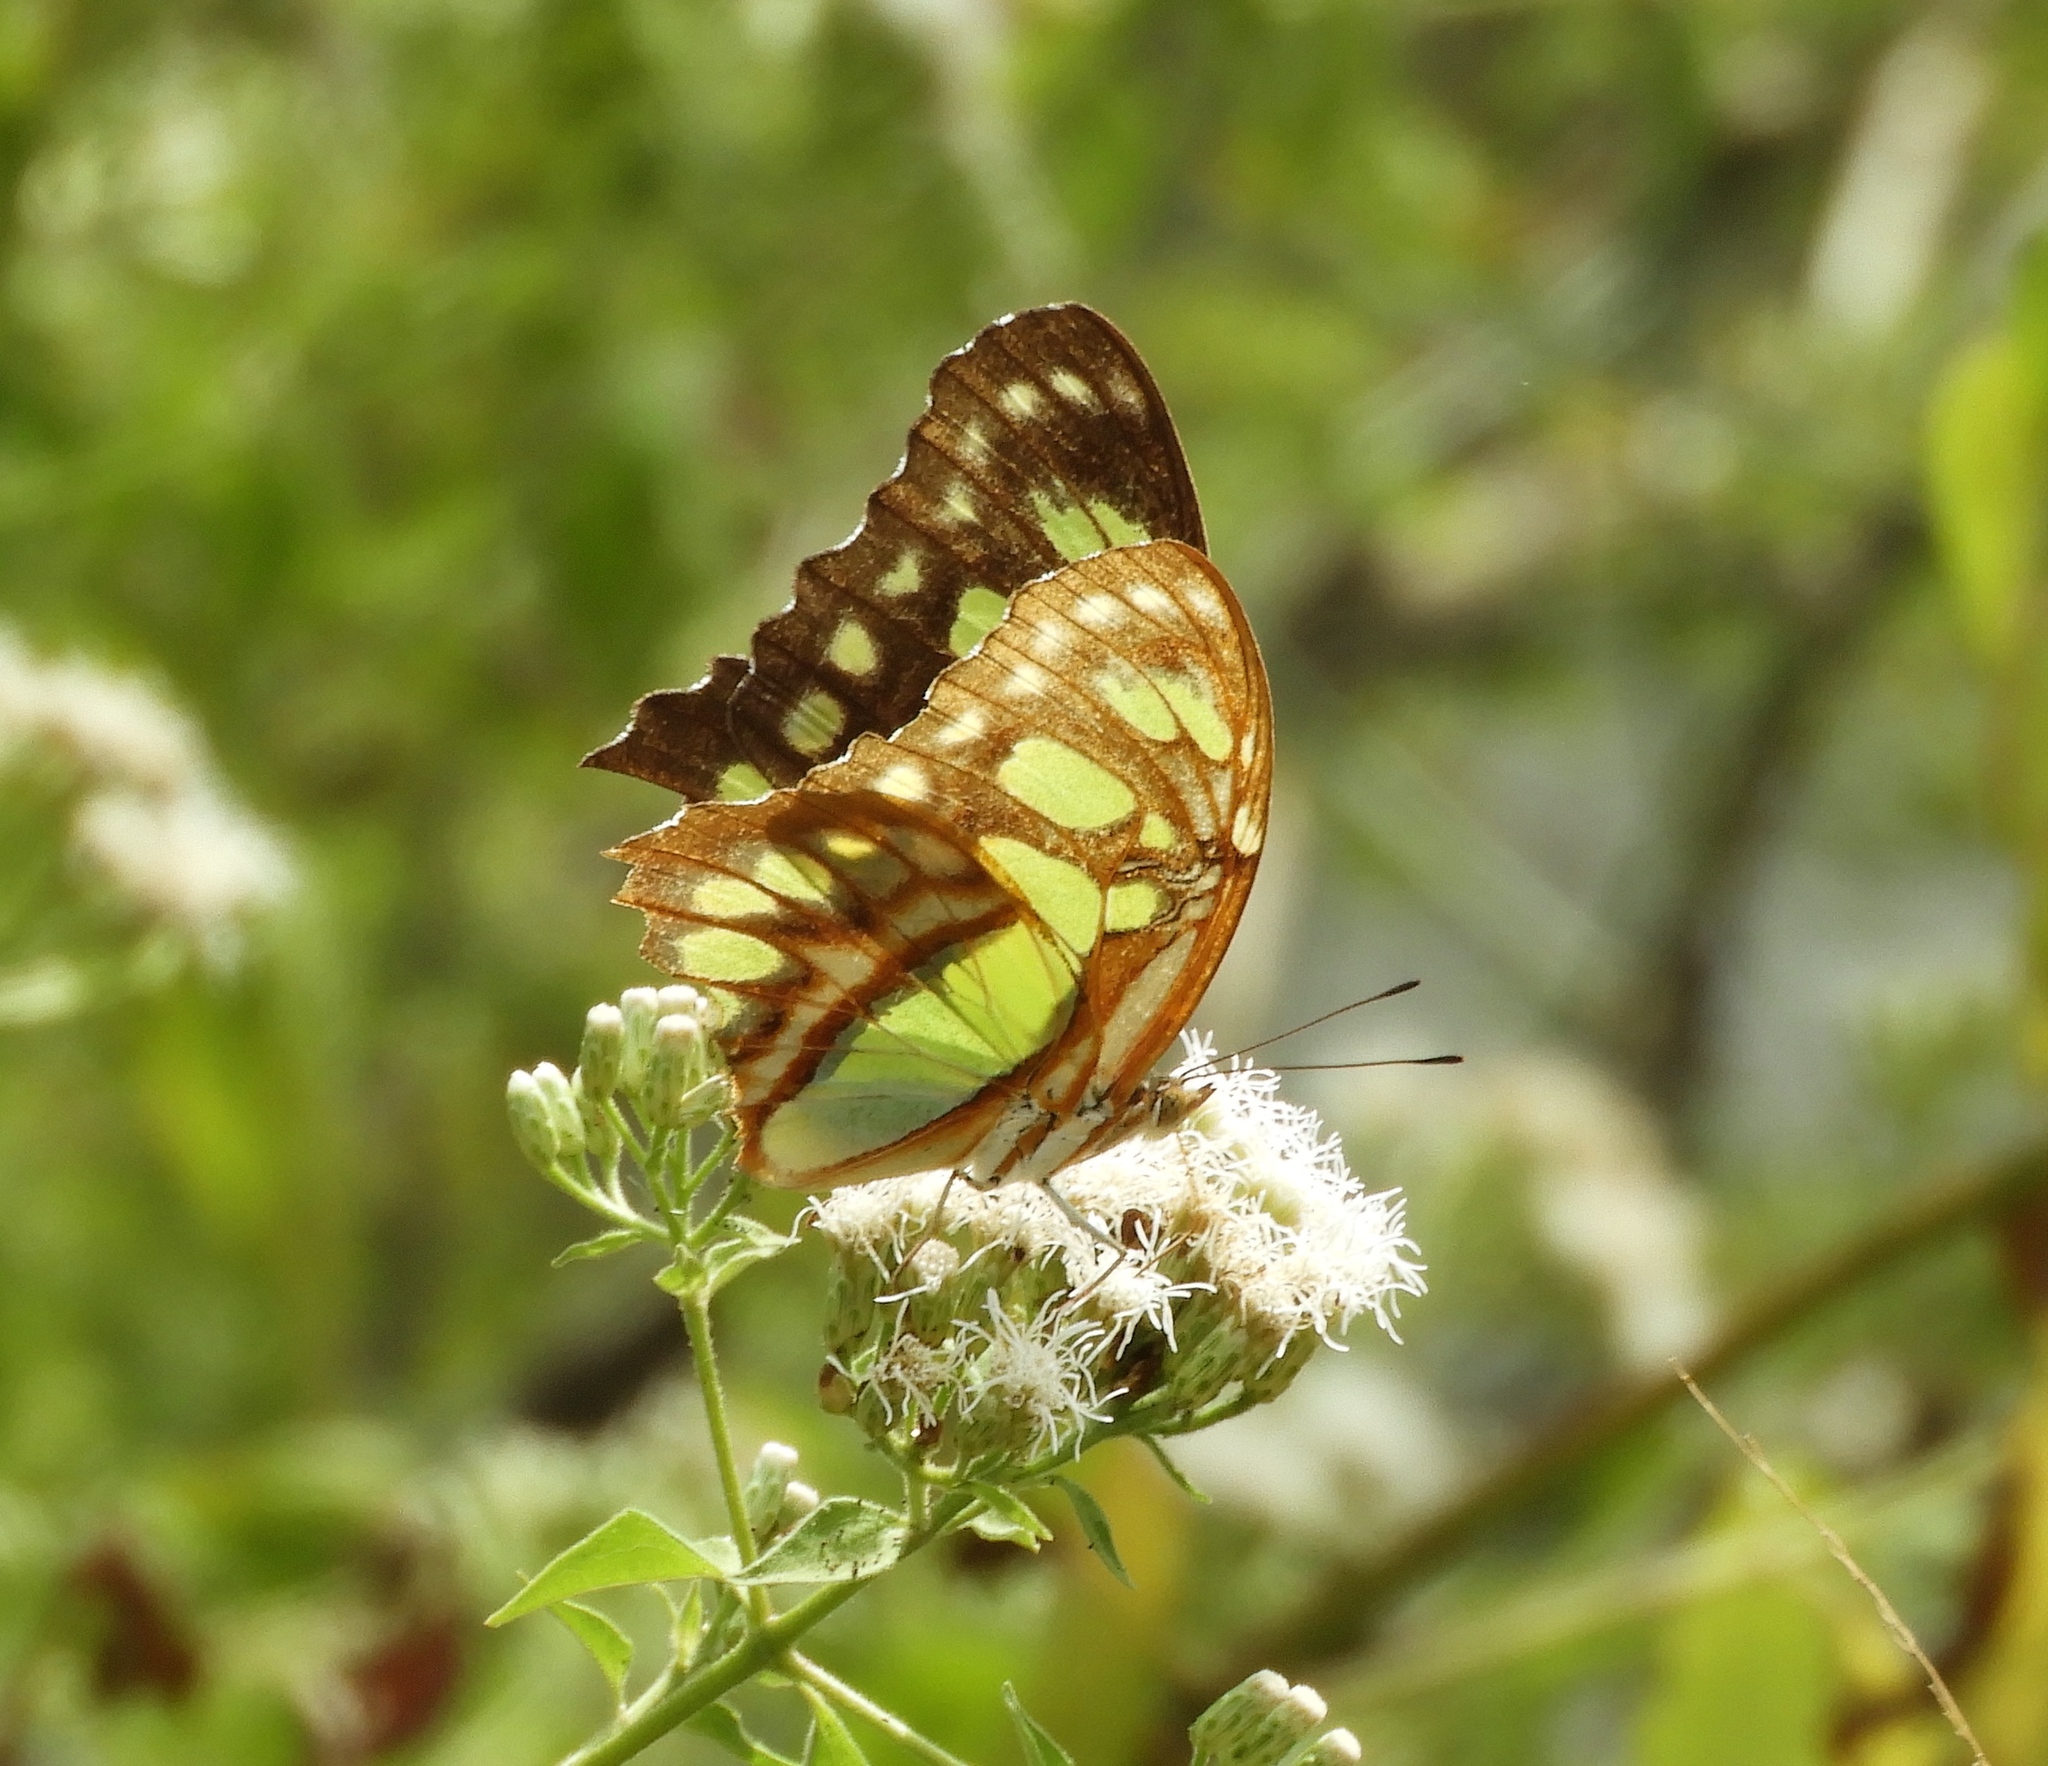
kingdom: Animalia
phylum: Arthropoda
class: Insecta
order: Lepidoptera
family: Nymphalidae
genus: Siproeta
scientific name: Siproeta stelenes
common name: Malachite
